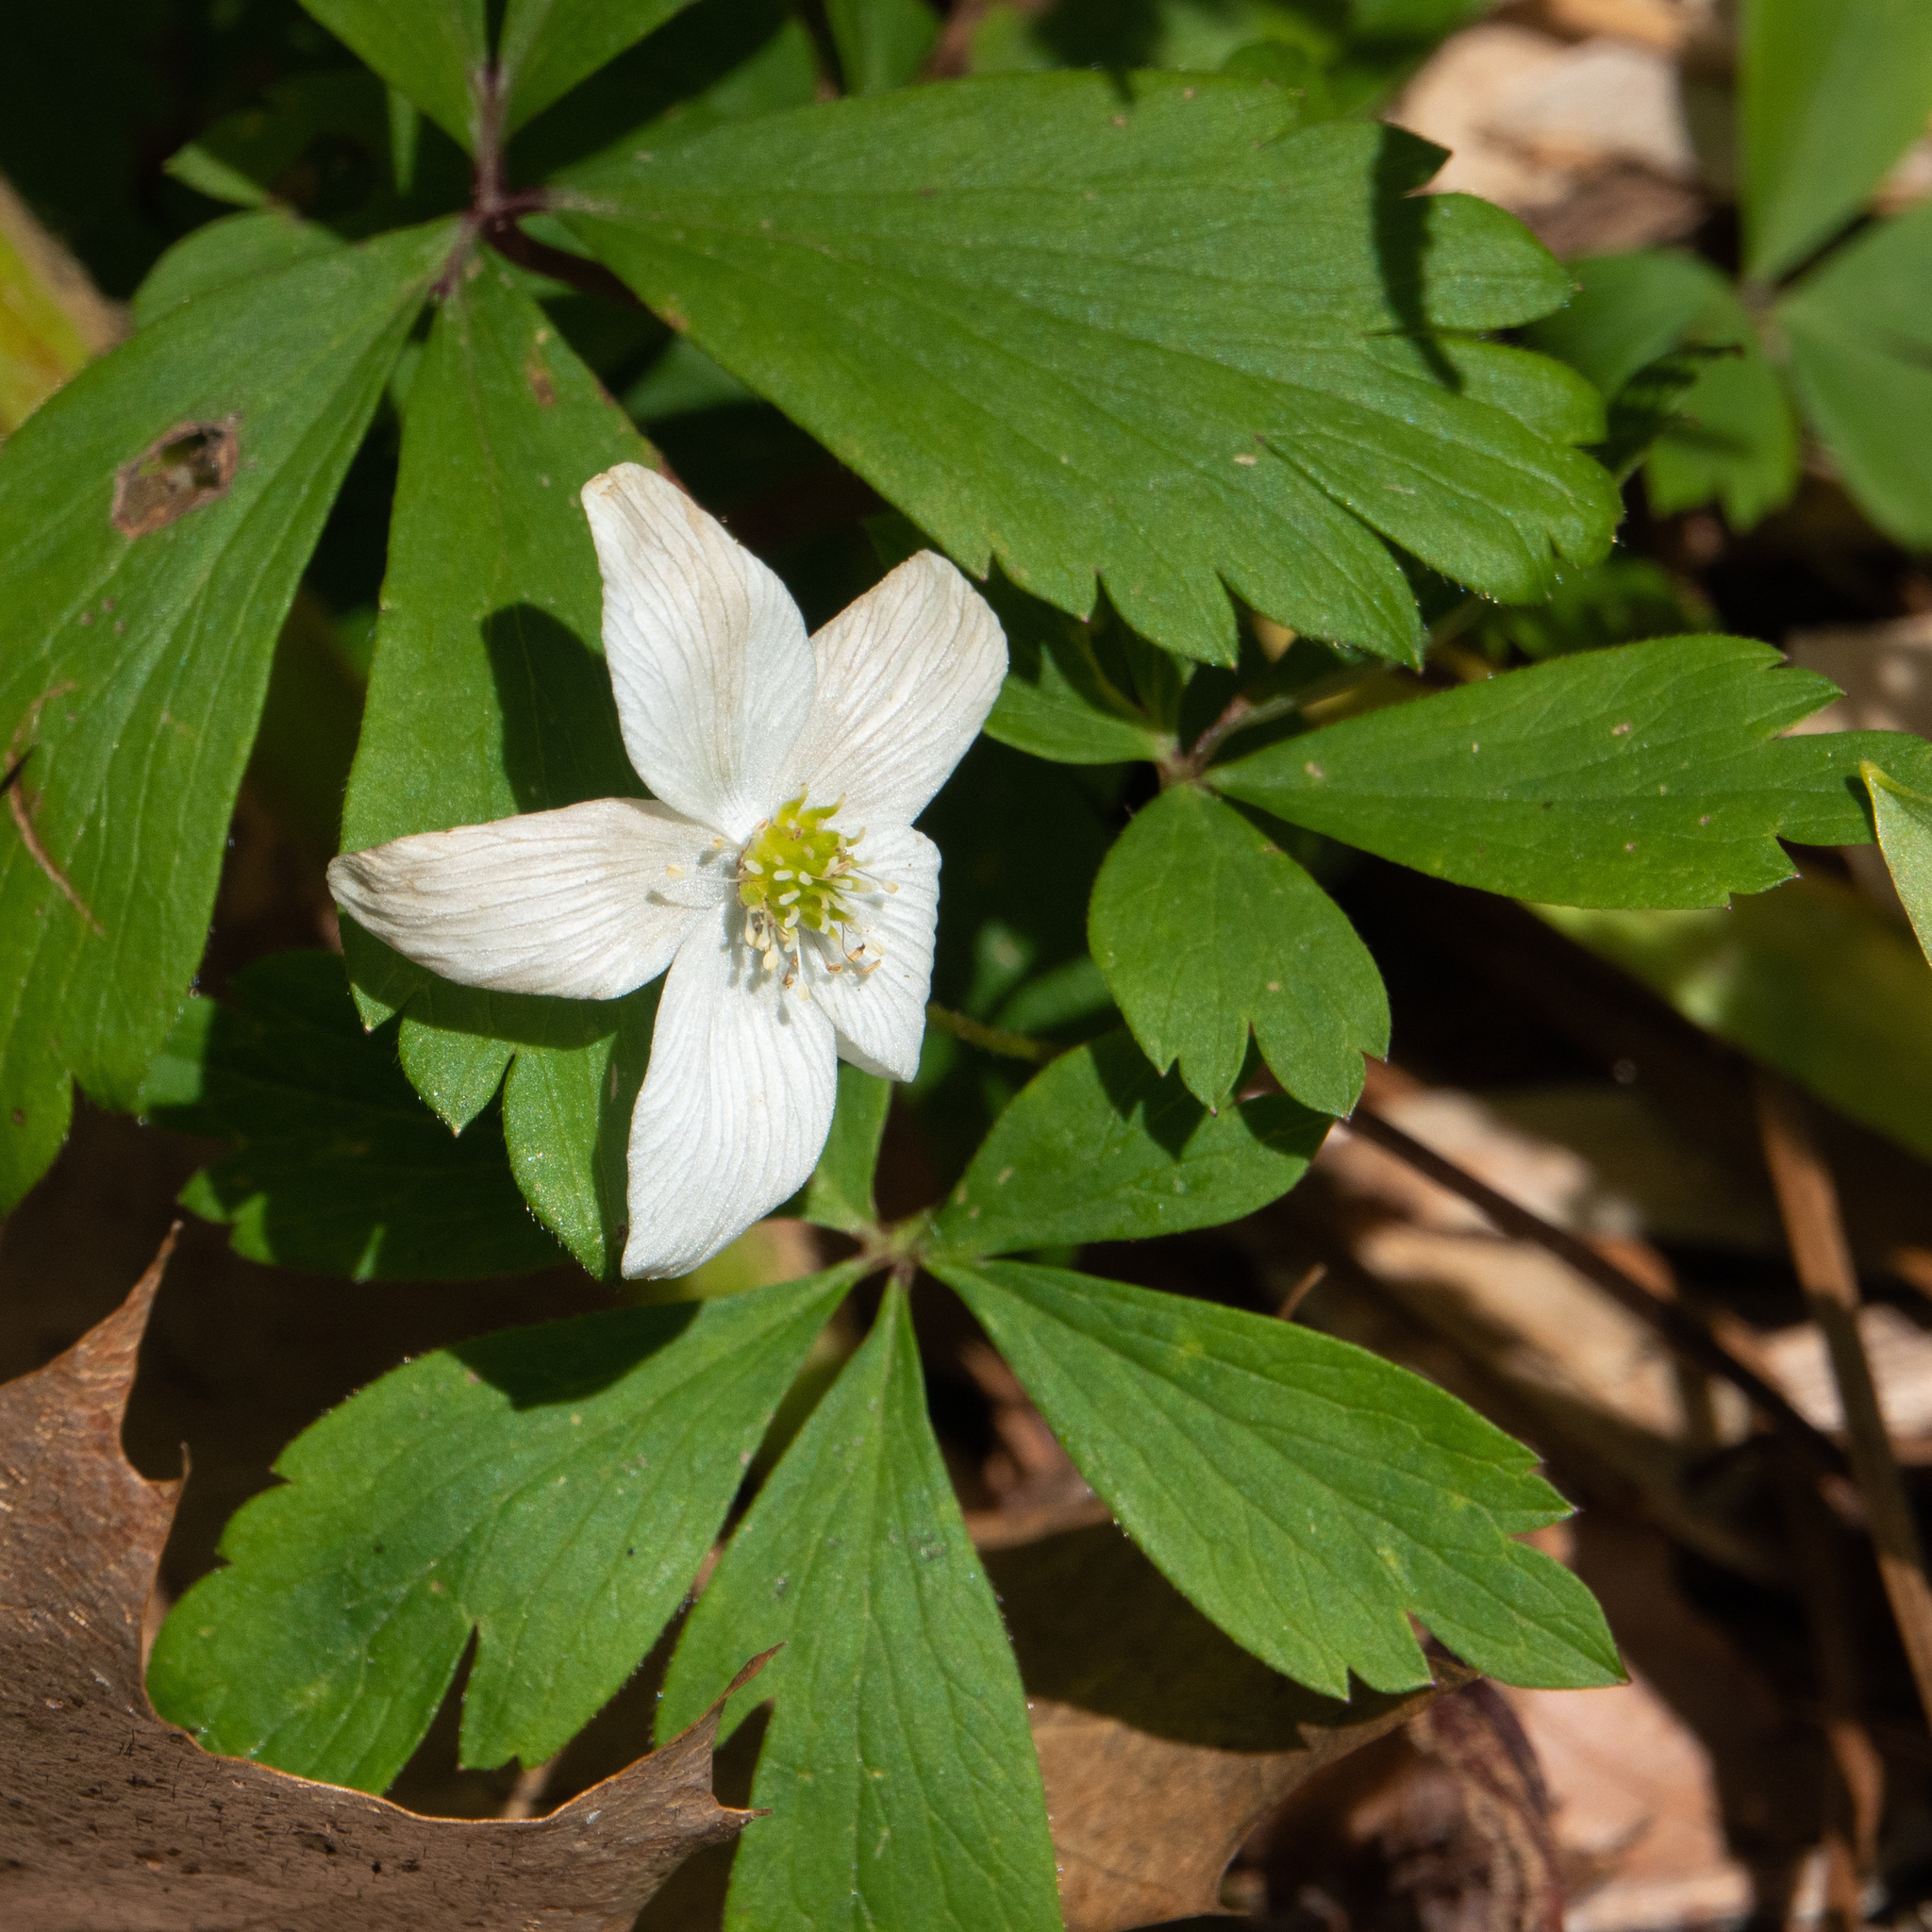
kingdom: Plantae
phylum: Tracheophyta
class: Magnoliopsida
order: Ranunculales
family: Ranunculaceae
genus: Anemone
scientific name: Anemone quinquefolia
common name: Wood anemone
